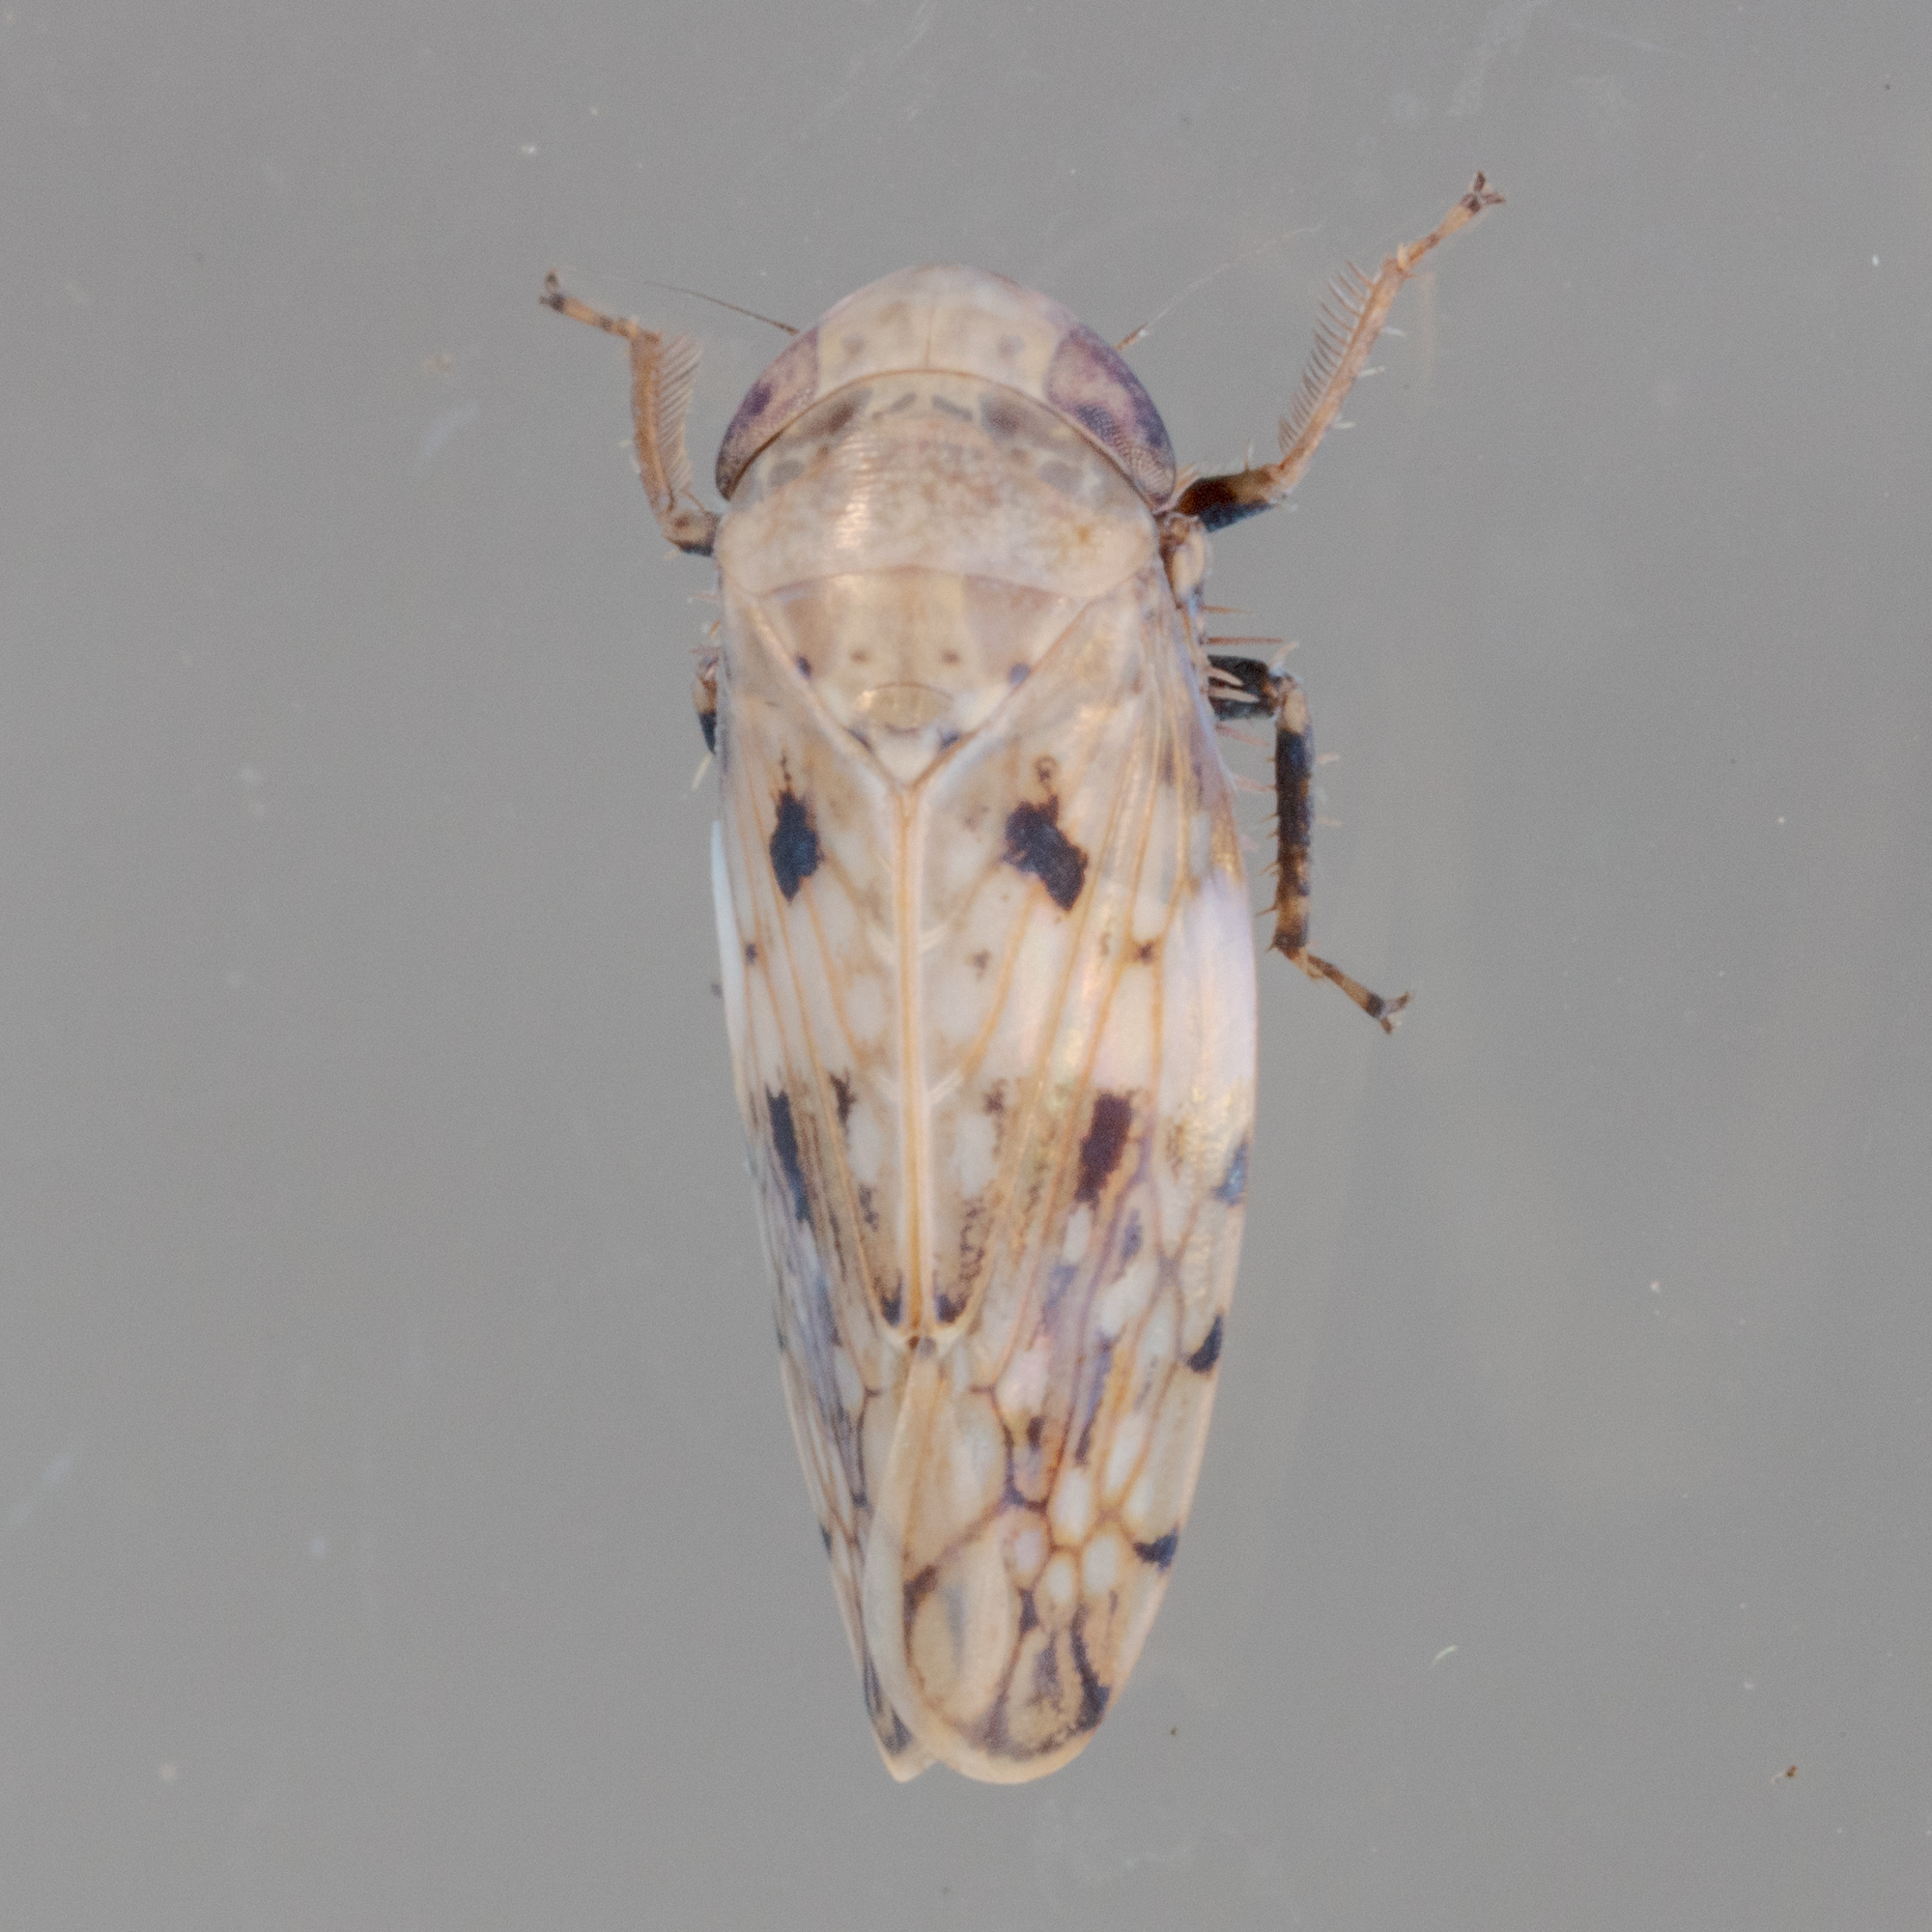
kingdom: Animalia
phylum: Arthropoda
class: Insecta
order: Hemiptera
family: Cicadellidae
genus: Menosoma
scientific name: Menosoma cinctum
